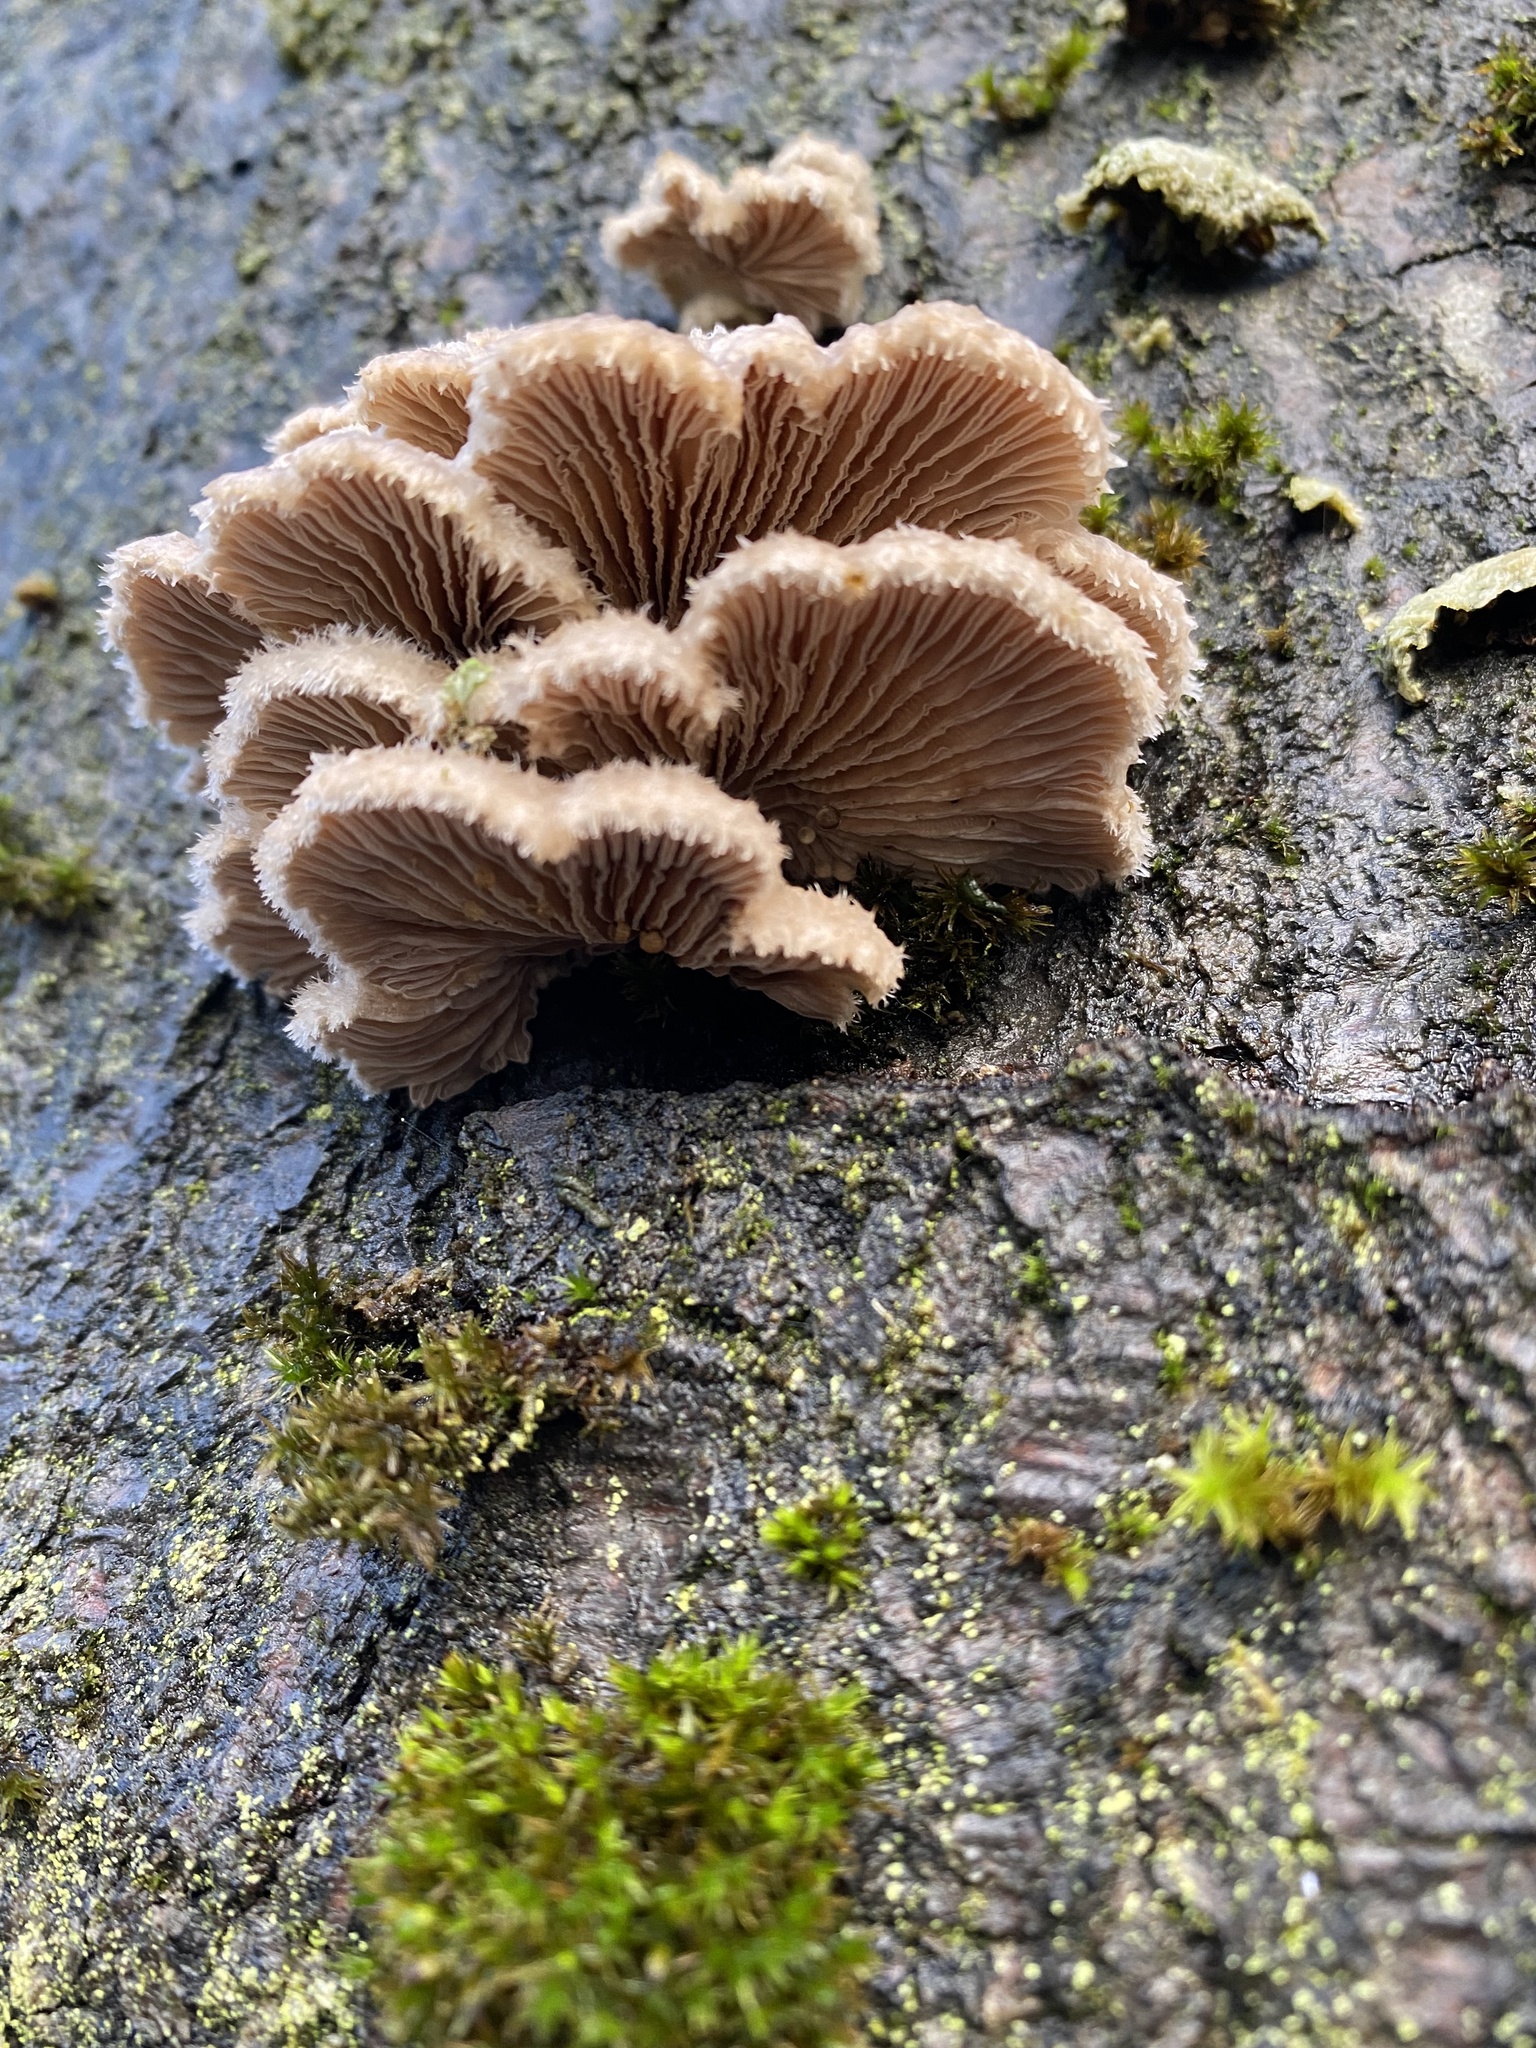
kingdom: Fungi
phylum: Basidiomycota
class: Agaricomycetes
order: Agaricales
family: Schizophyllaceae
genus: Schizophyllum
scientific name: Schizophyllum commune
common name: Common porecrust
